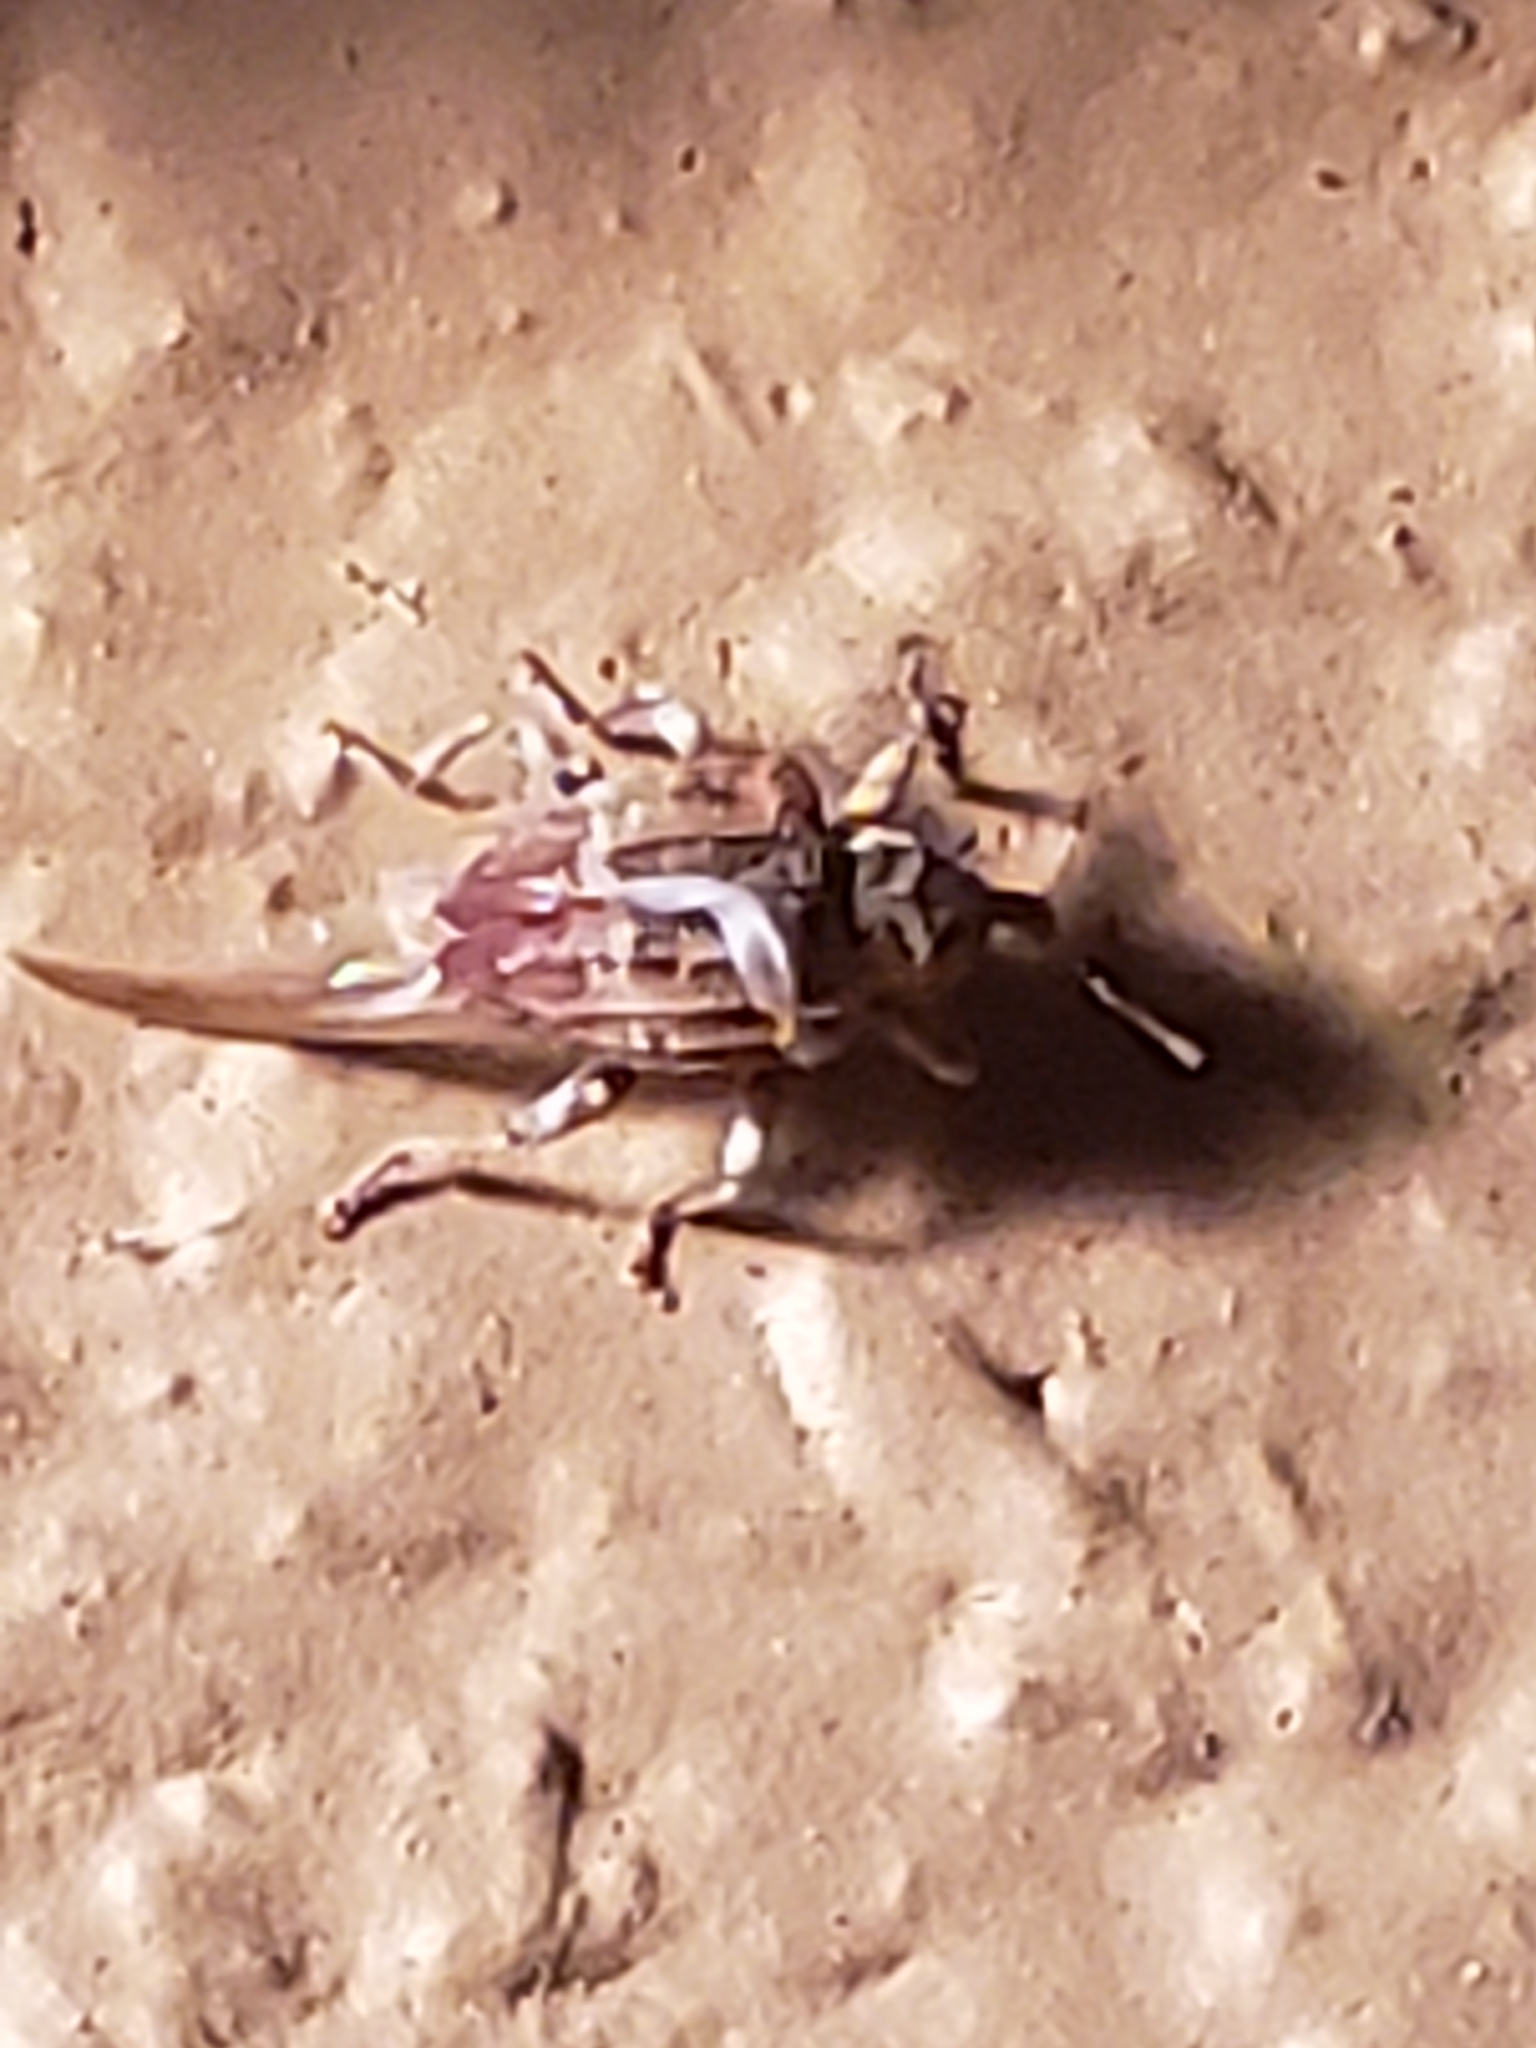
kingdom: Animalia
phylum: Arthropoda
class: Insecta
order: Coleoptera
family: Curculionidae
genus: Conotrachelus
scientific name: Conotrachelus anaglypticus
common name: Cambium curculio
